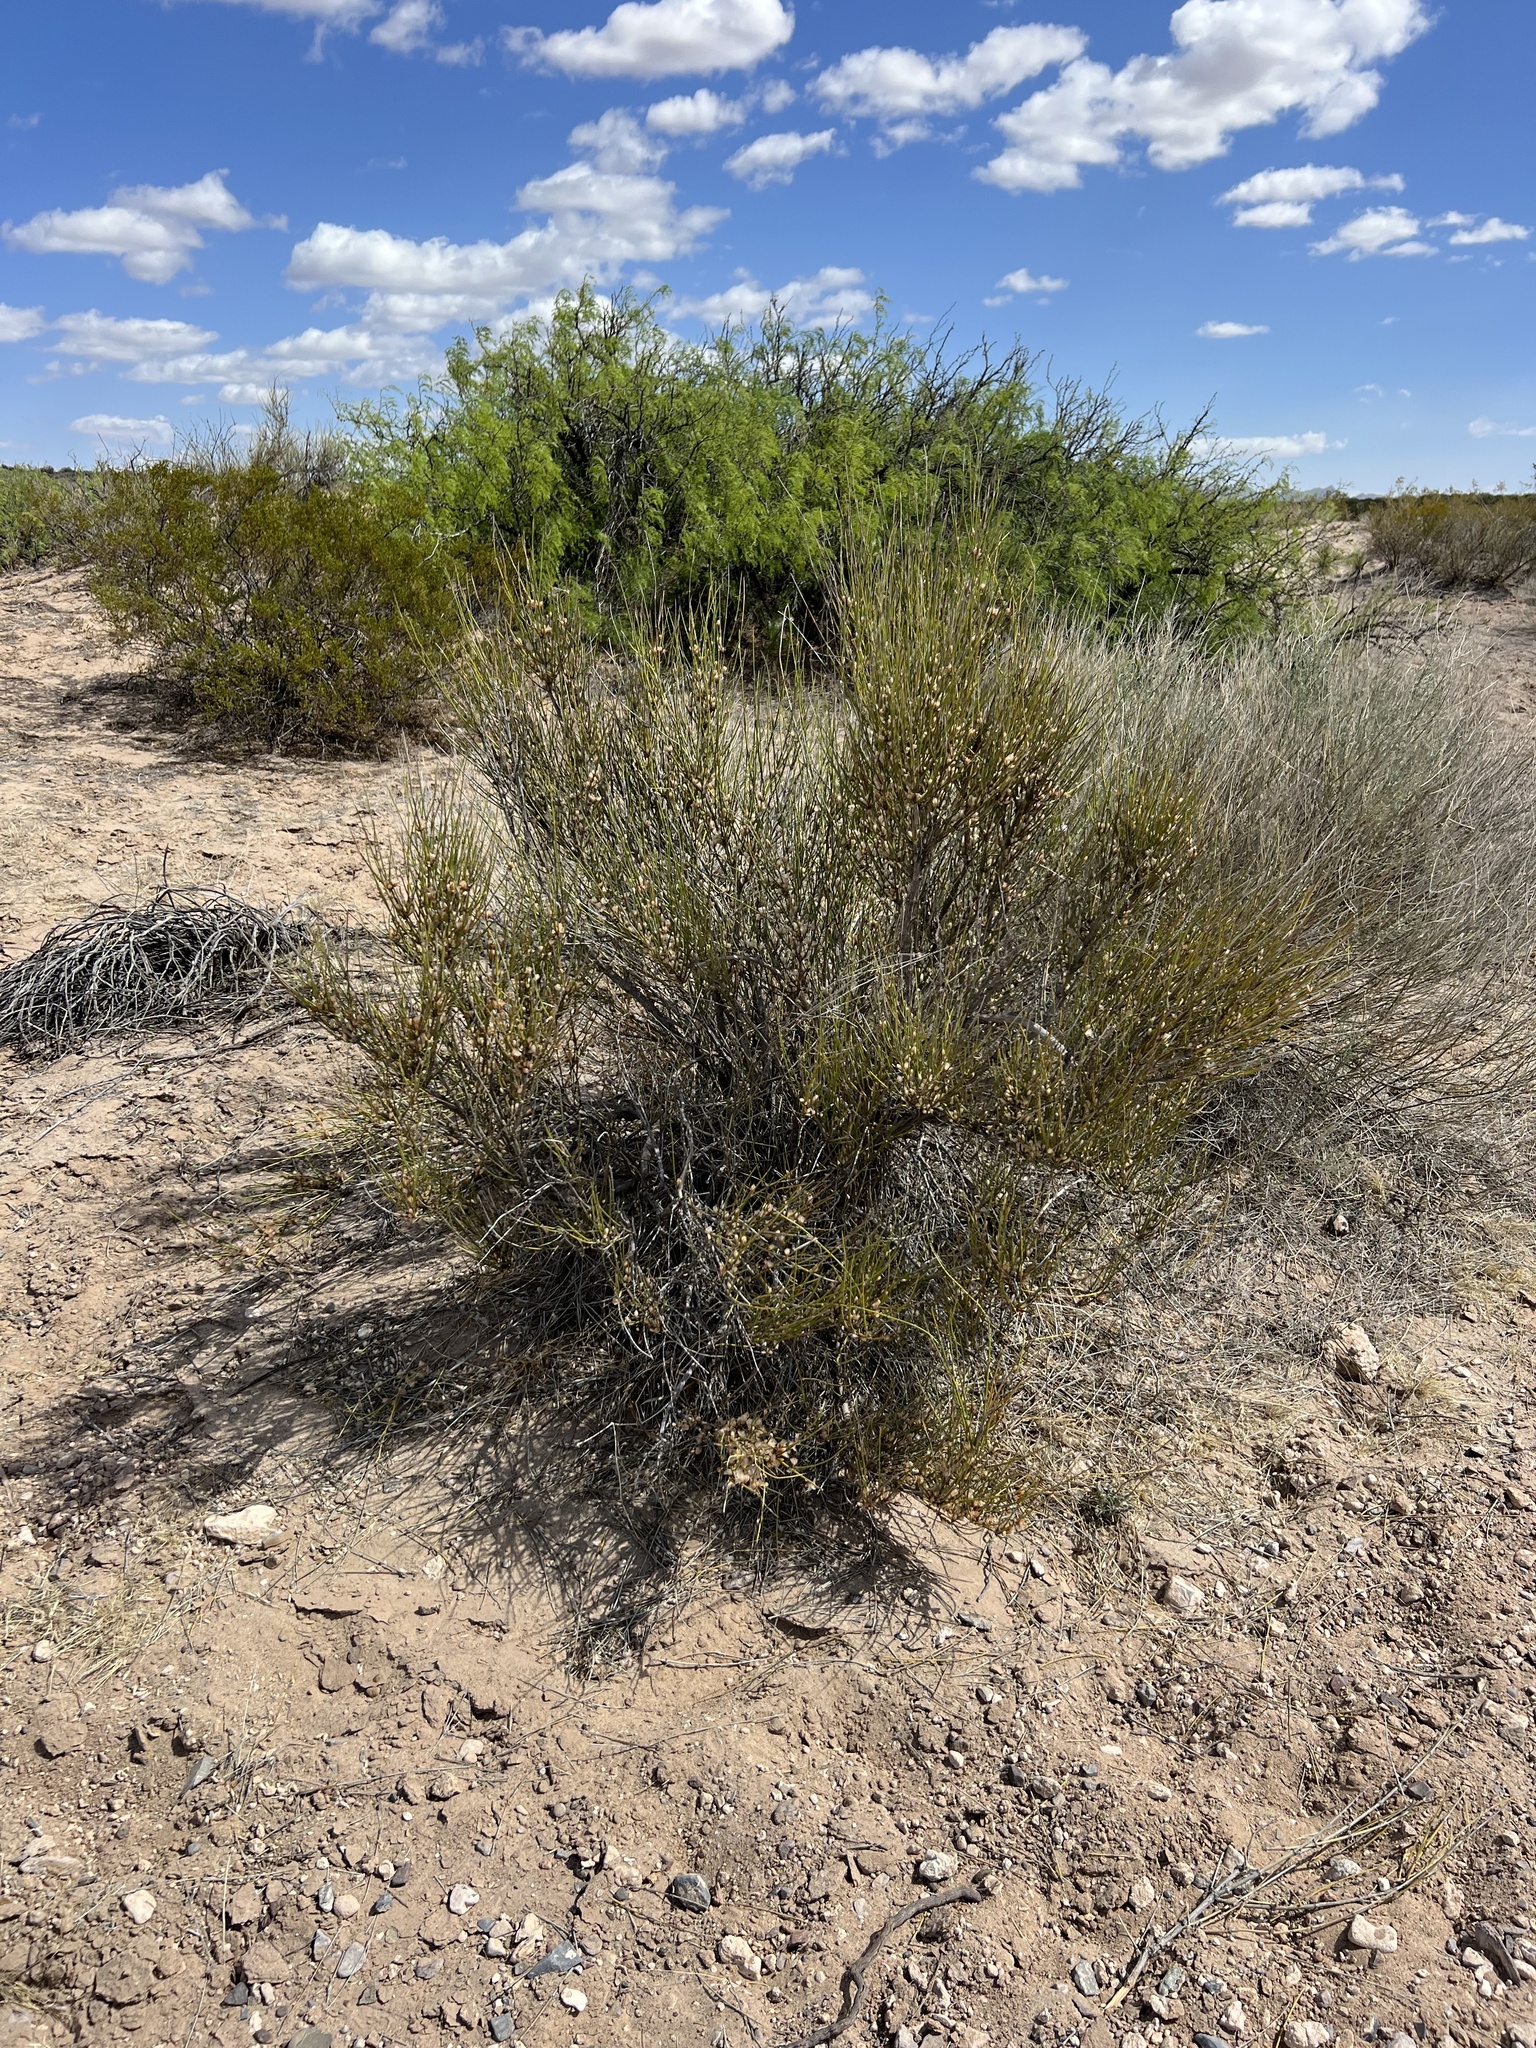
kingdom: Plantae
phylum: Tracheophyta
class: Gnetopsida
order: Ephedrales
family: Ephedraceae
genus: Ephedra
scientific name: Ephedra trifurca
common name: Mexican-tea
